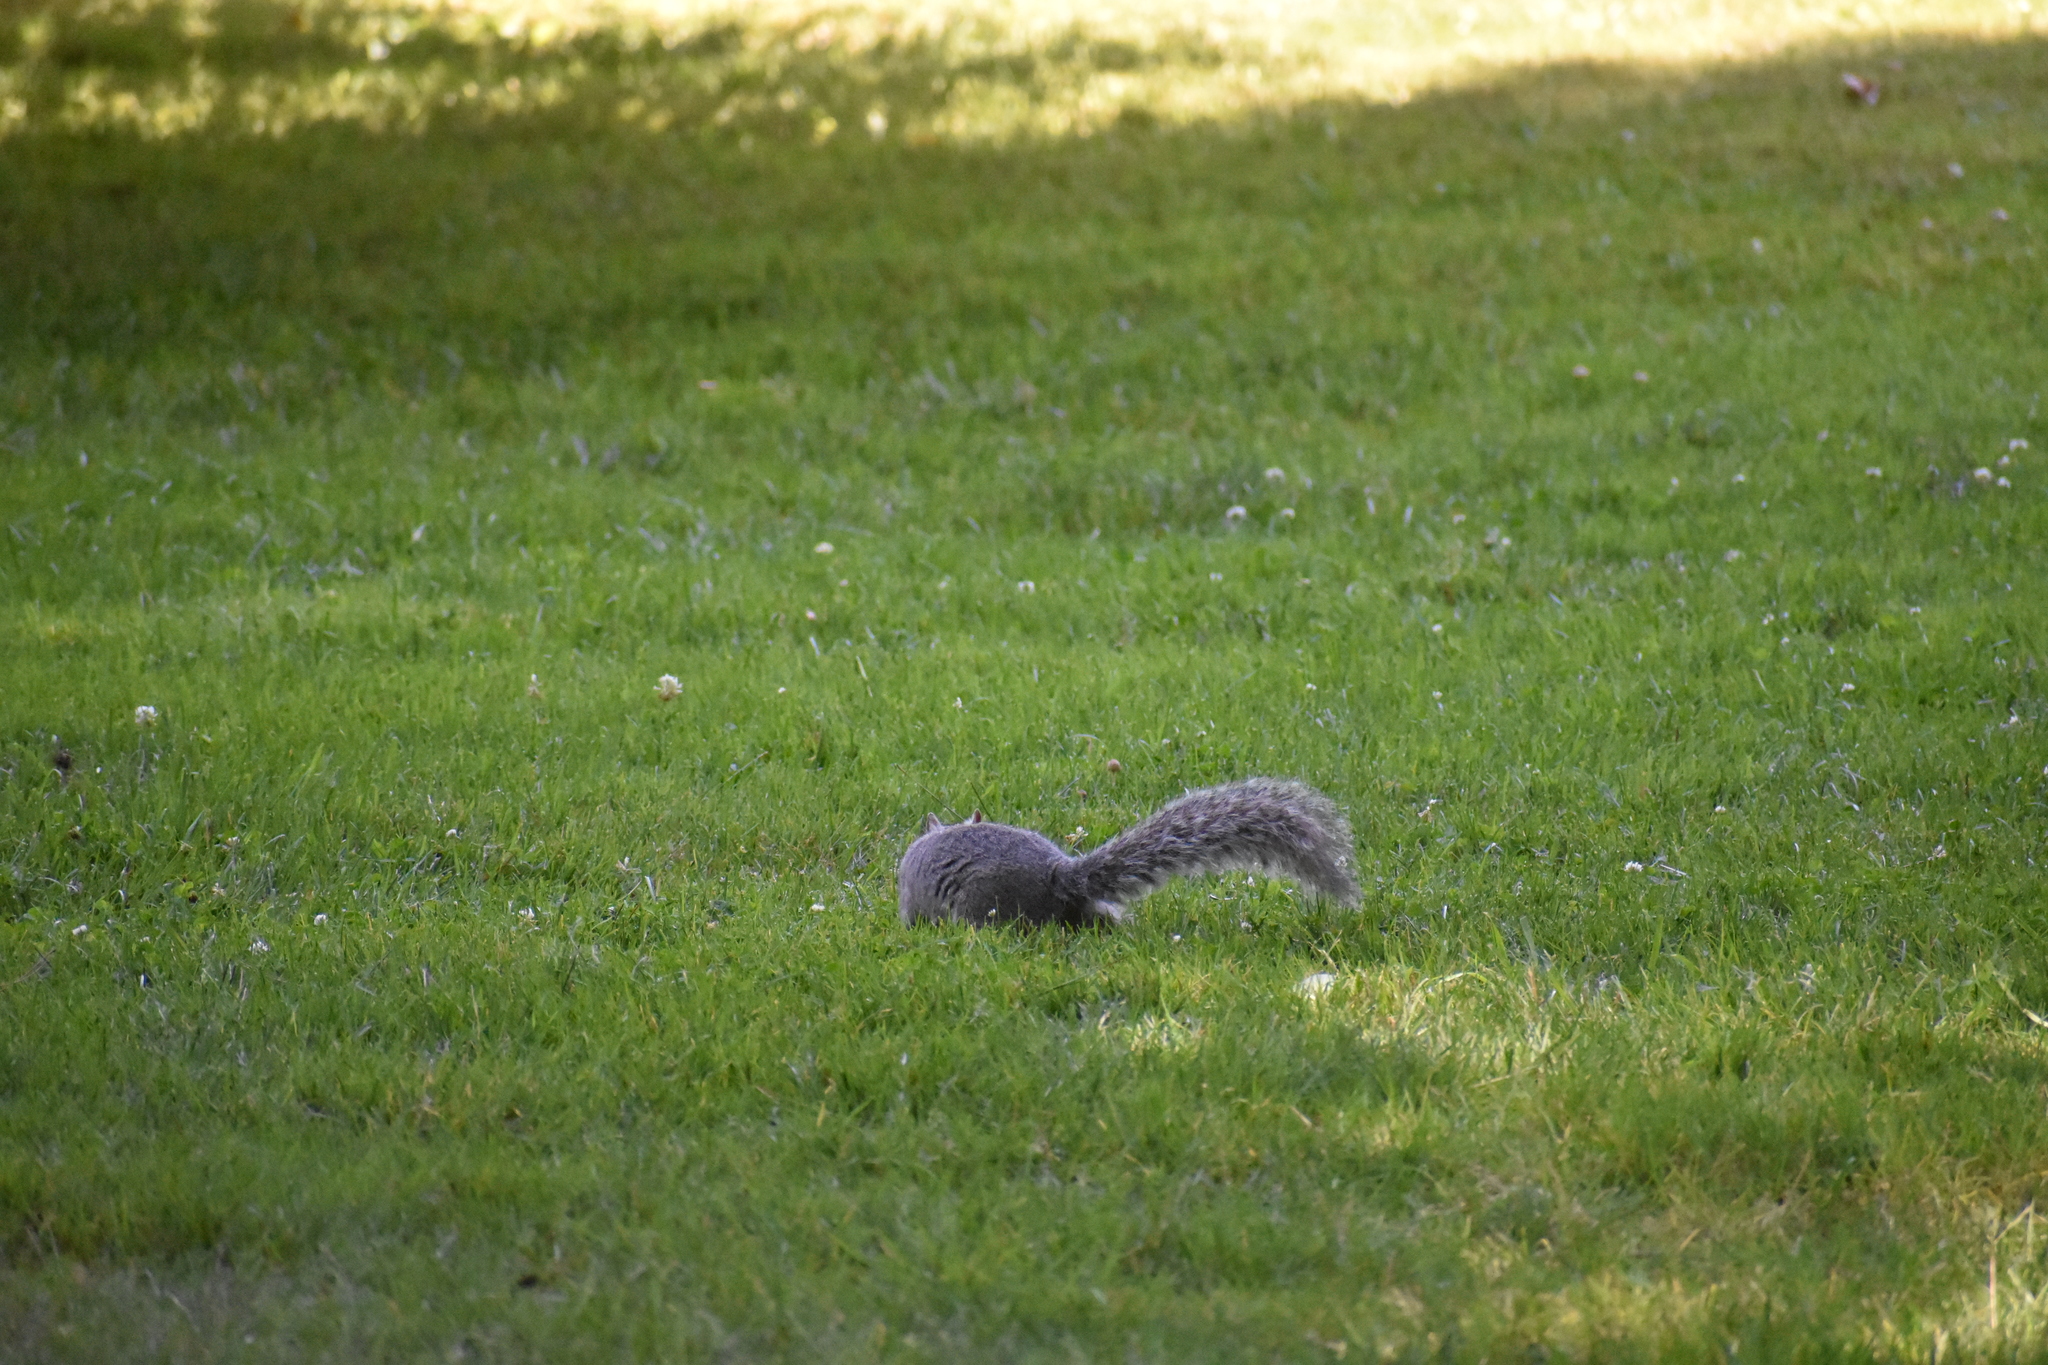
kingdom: Animalia
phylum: Chordata
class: Mammalia
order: Rodentia
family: Sciuridae
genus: Sciurus
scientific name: Sciurus carolinensis
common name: Eastern gray squirrel
